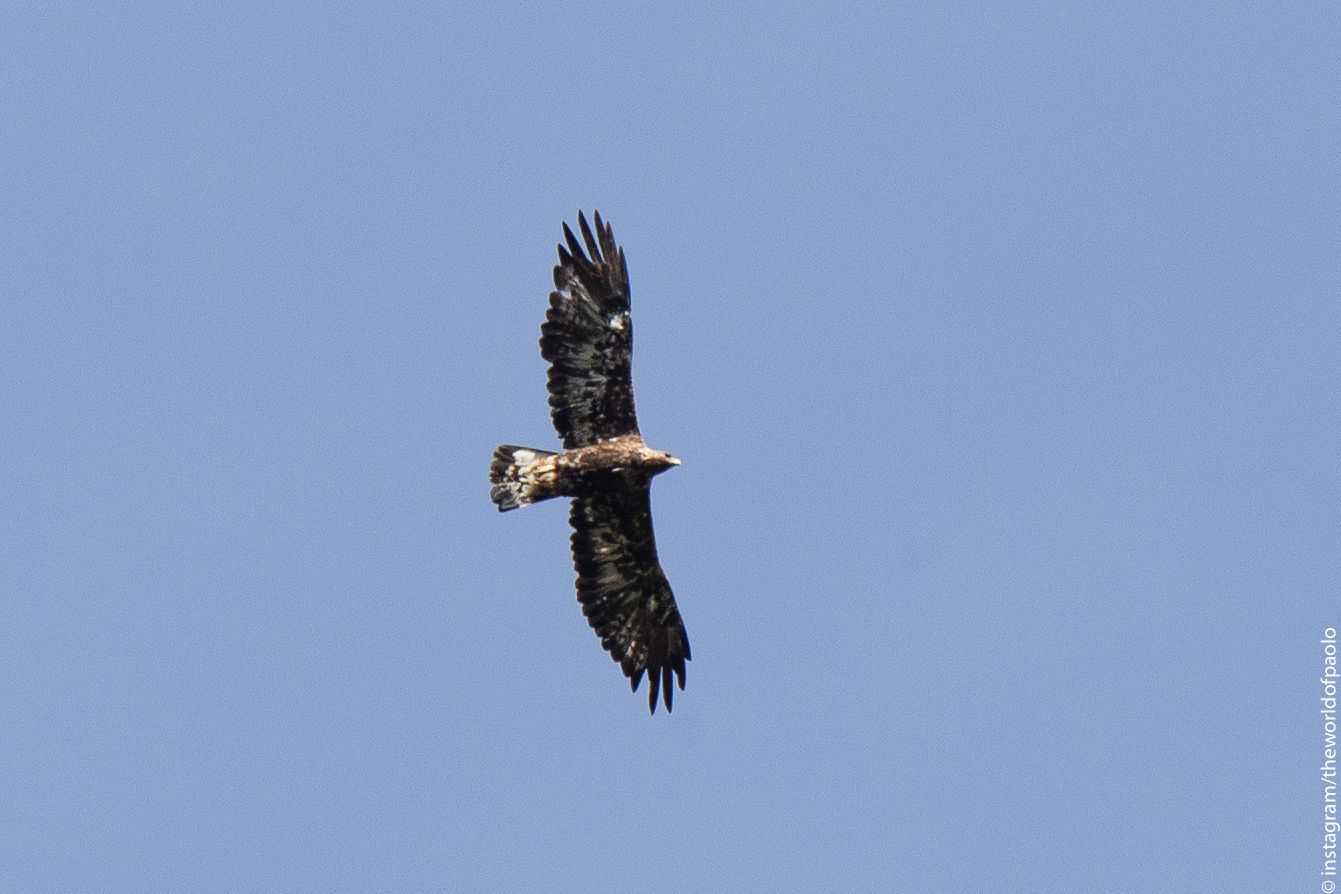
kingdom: Animalia
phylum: Chordata
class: Aves
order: Accipitriformes
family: Accipitridae
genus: Aquila
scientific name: Aquila chrysaetos
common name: Golden eagle
